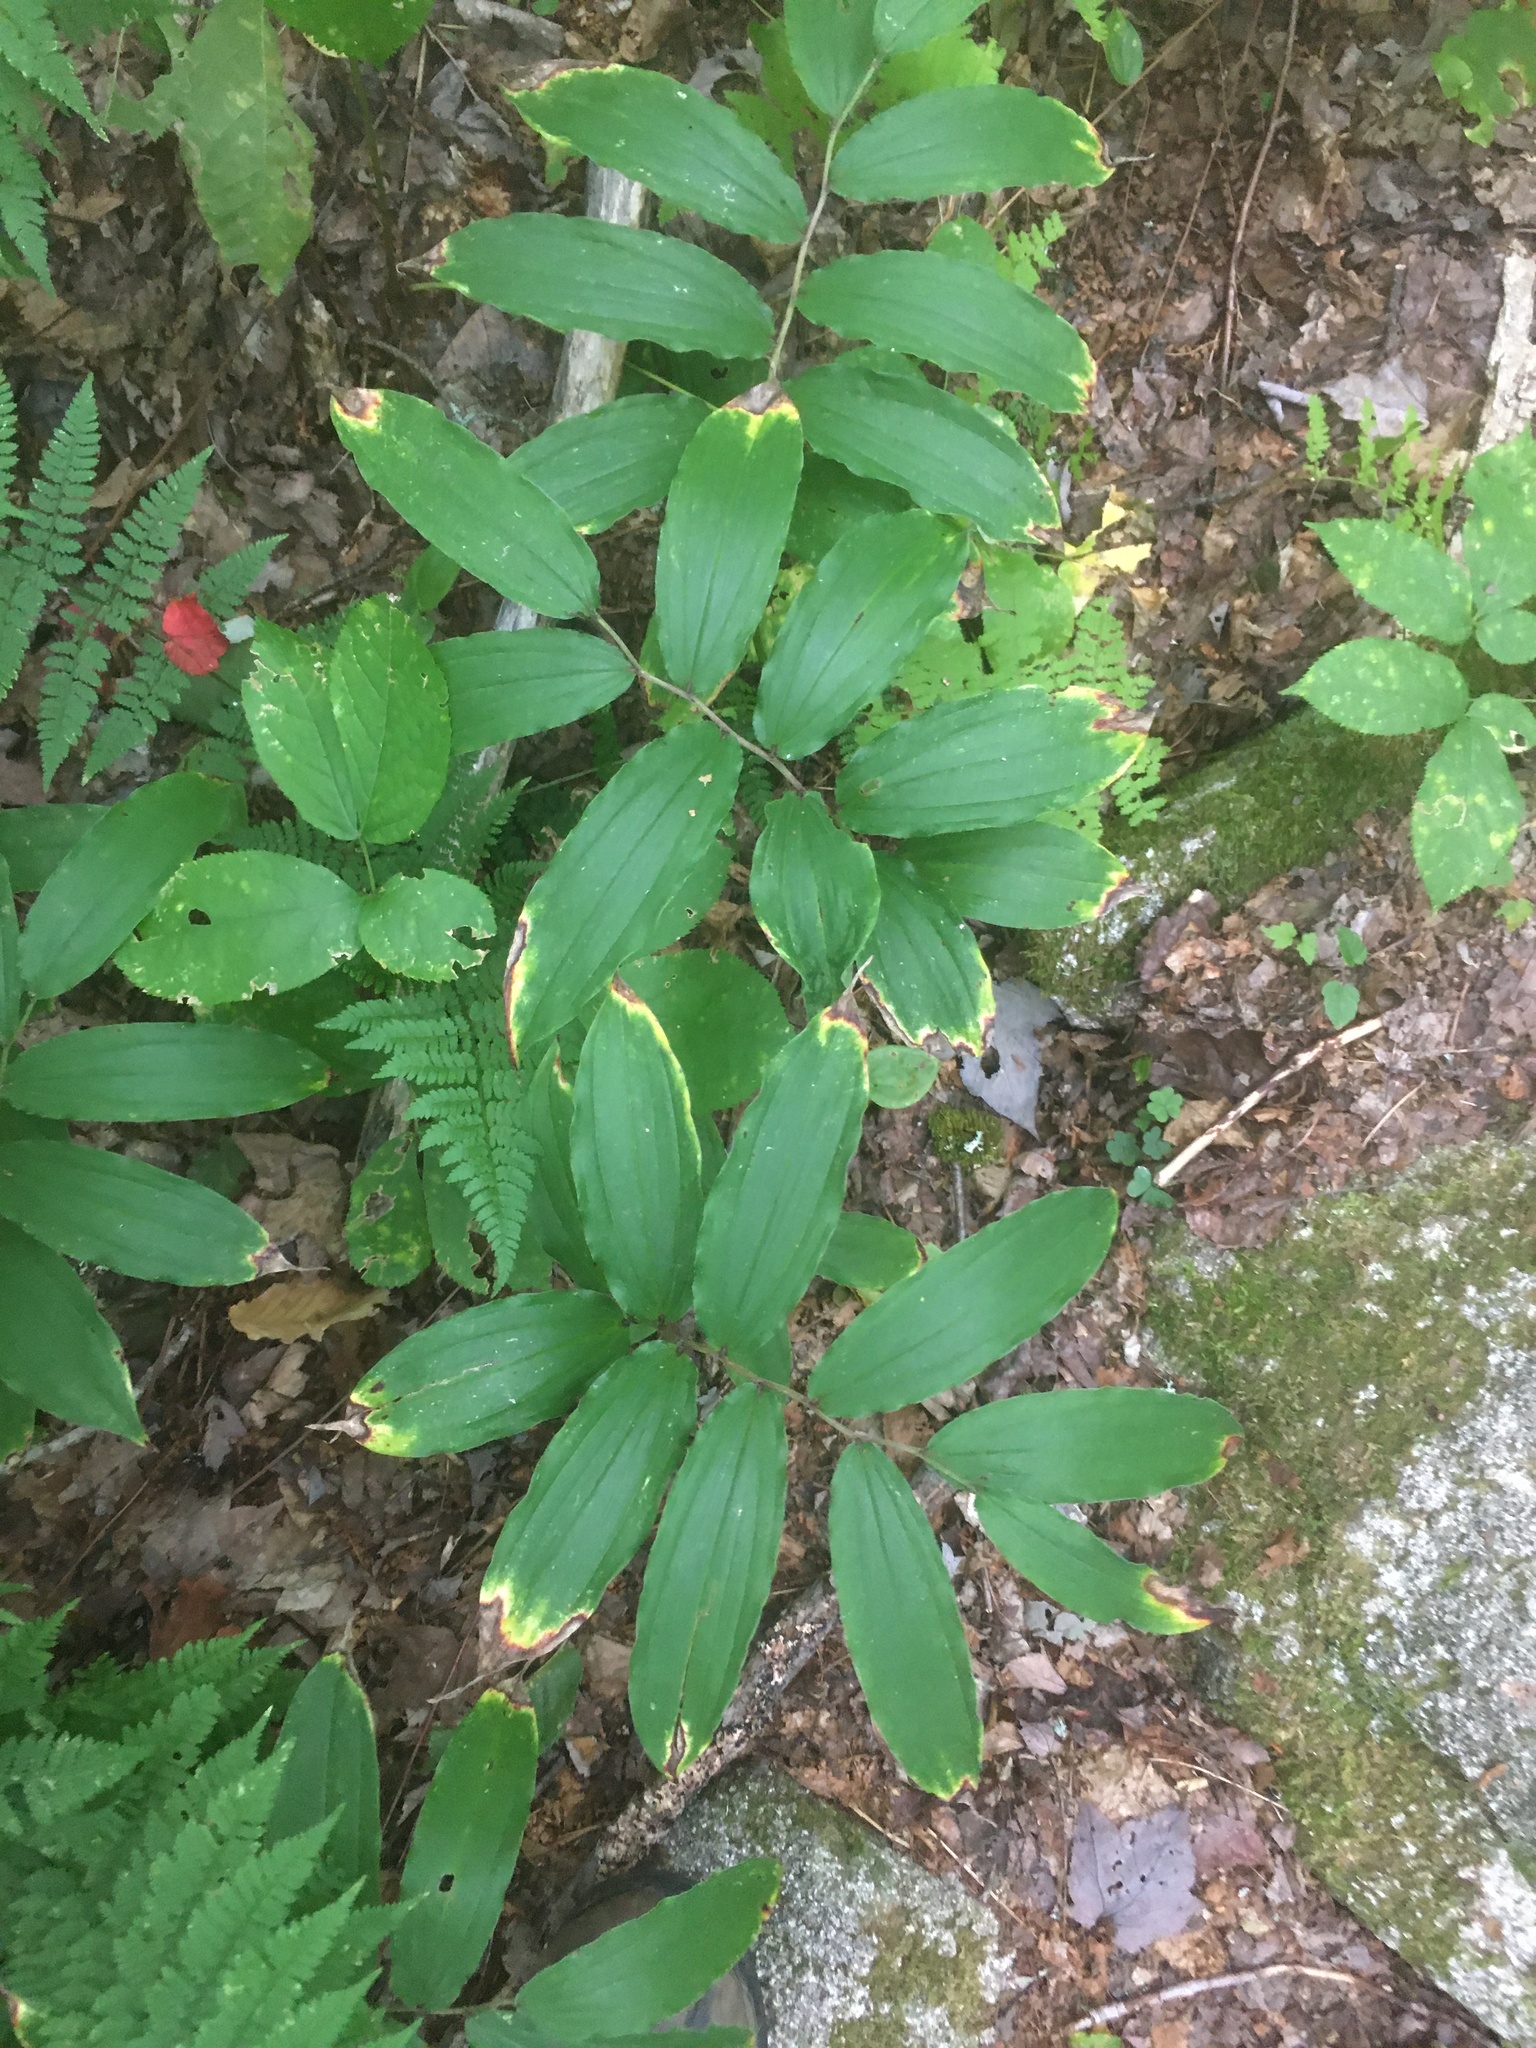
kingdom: Plantae
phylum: Tracheophyta
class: Liliopsida
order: Asparagales
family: Asparagaceae
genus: Maianthemum
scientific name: Maianthemum racemosum
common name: False spikenard
